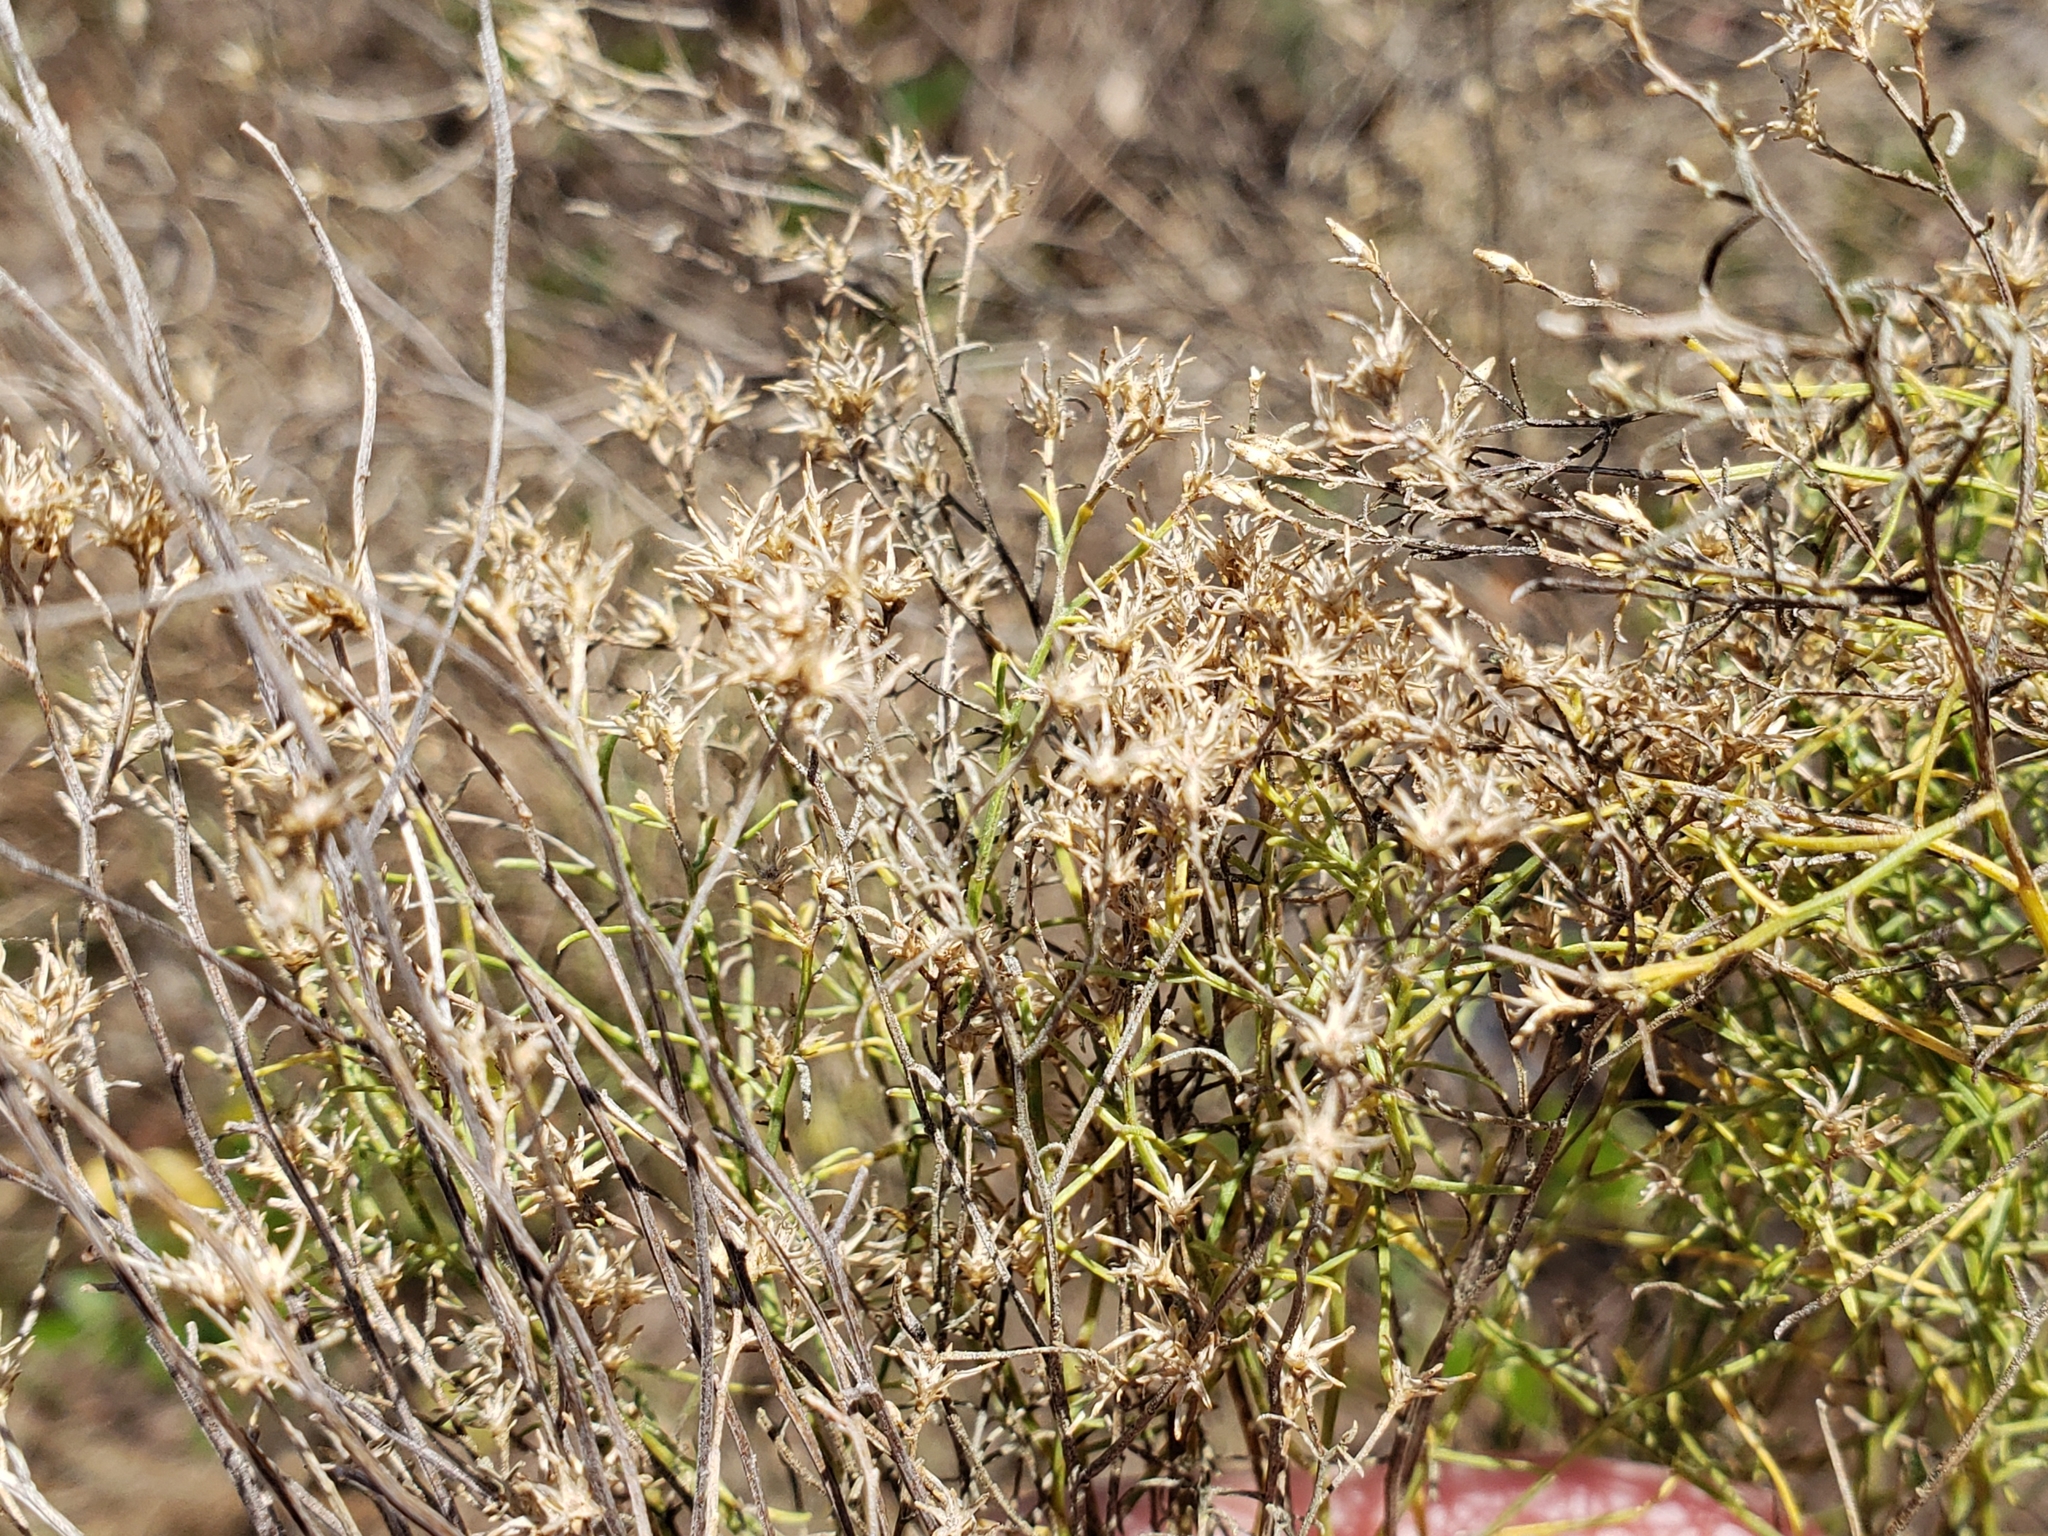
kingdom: Plantae
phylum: Tracheophyta
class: Magnoliopsida
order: Asterales
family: Asteraceae
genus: Euthamia
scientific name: Euthamia caroliniana
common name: Coastal plain goldentop
